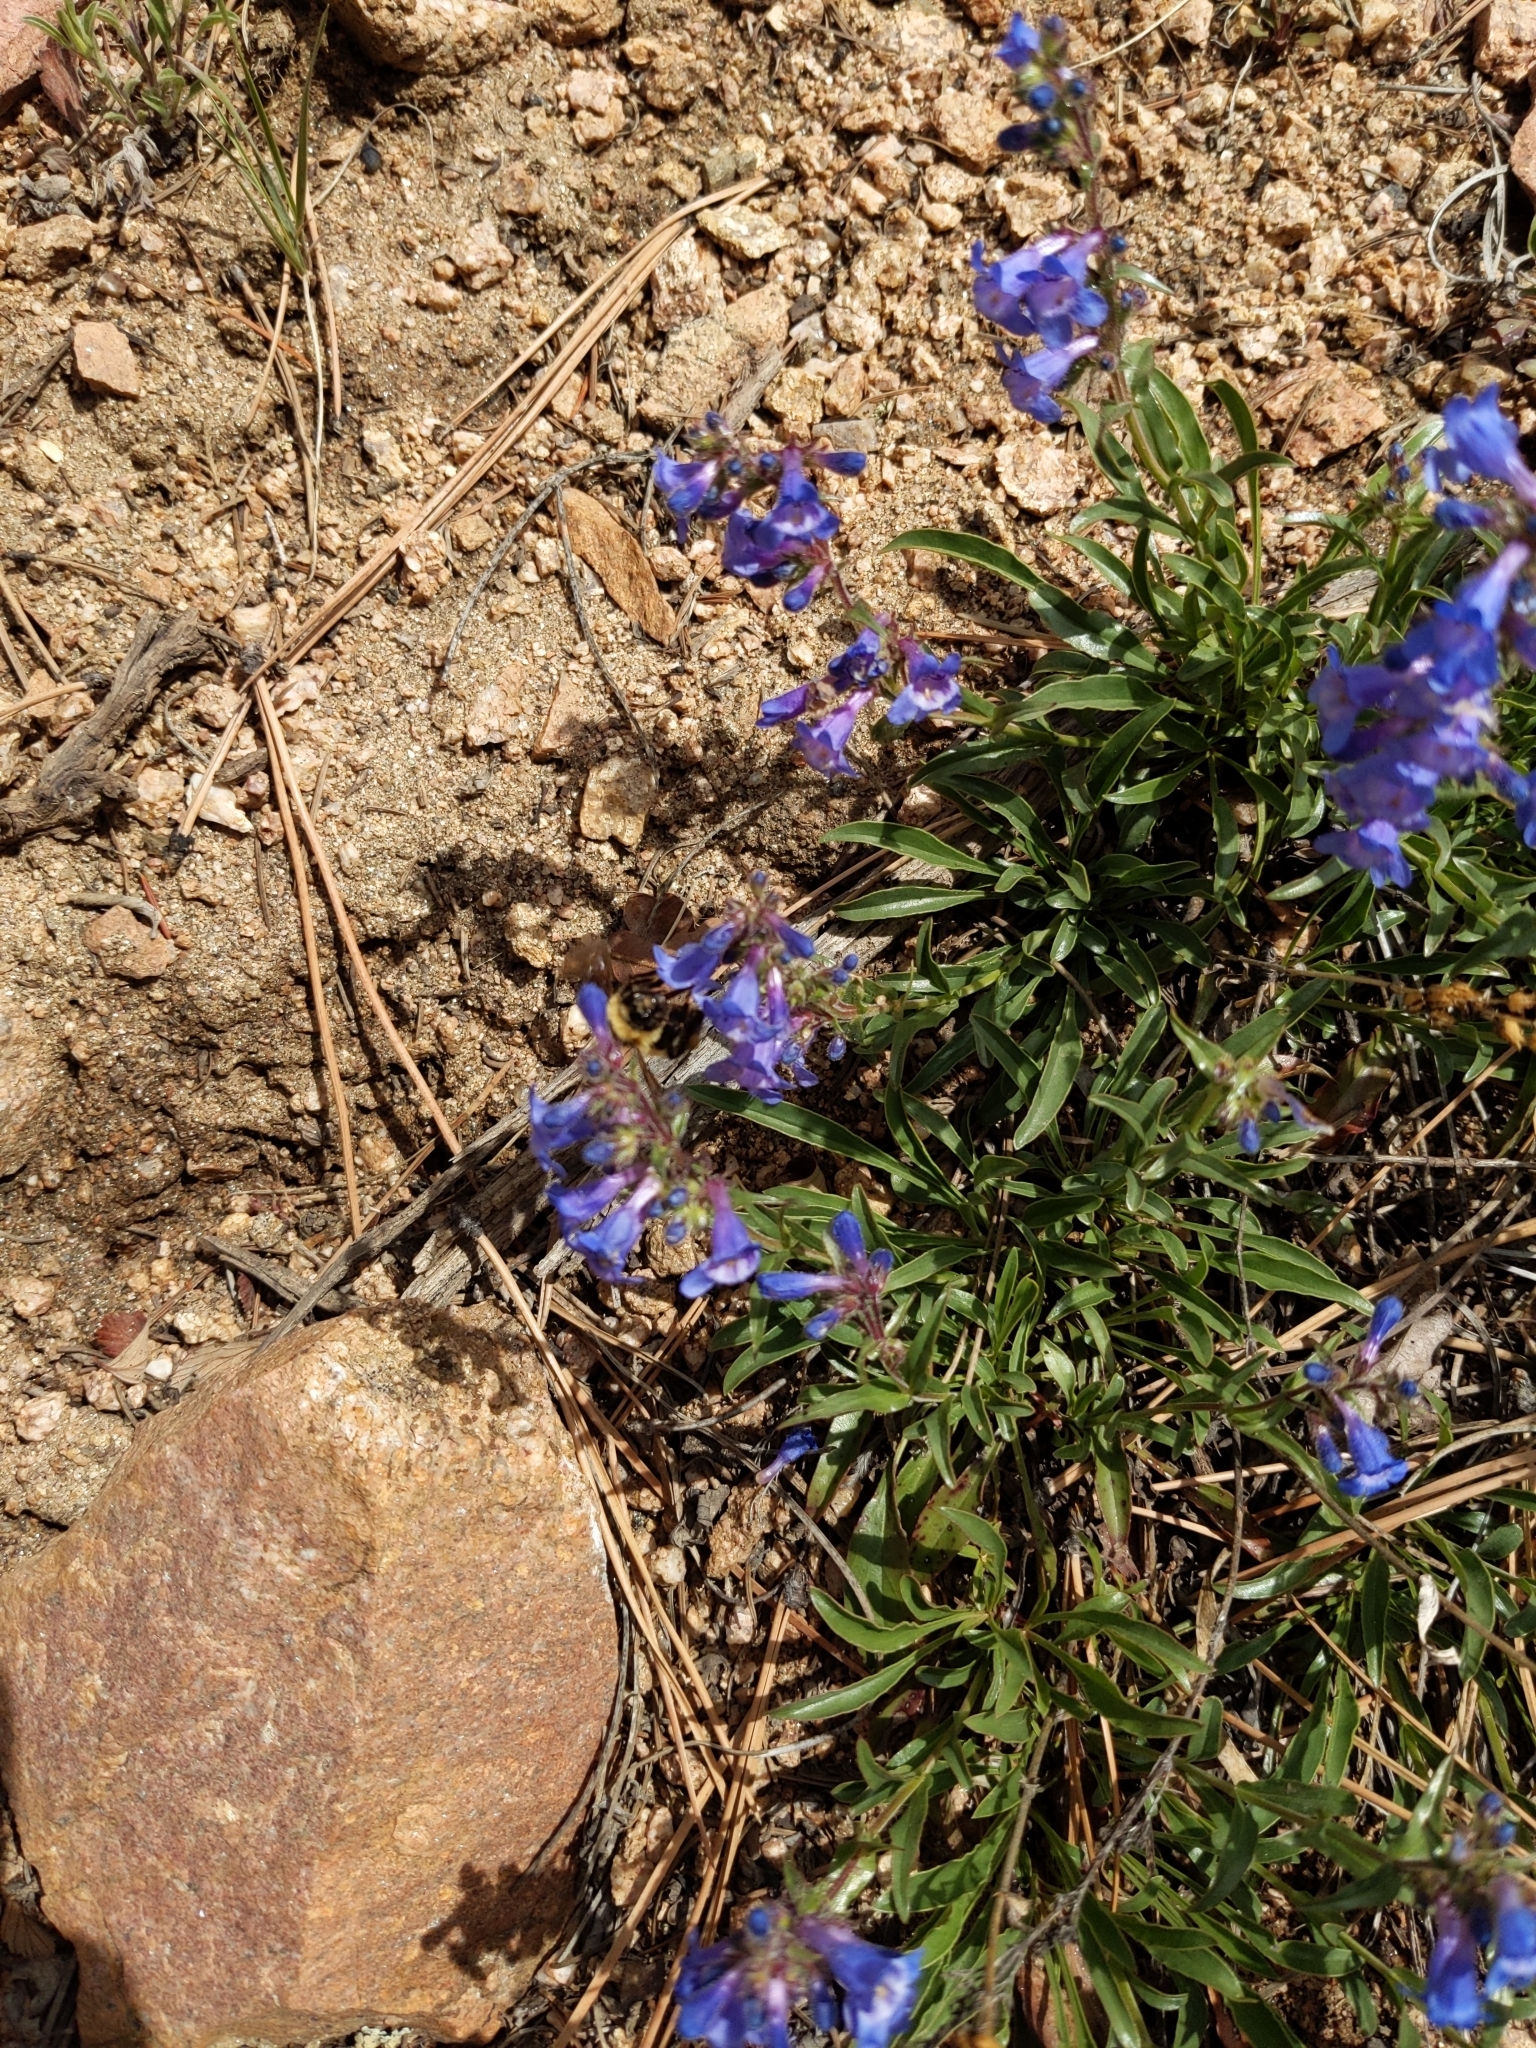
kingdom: Animalia
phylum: Arthropoda
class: Insecta
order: Hymenoptera
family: Apidae
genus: Bombus
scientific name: Bombus rufocinctus
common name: Red-belted bumble bee
